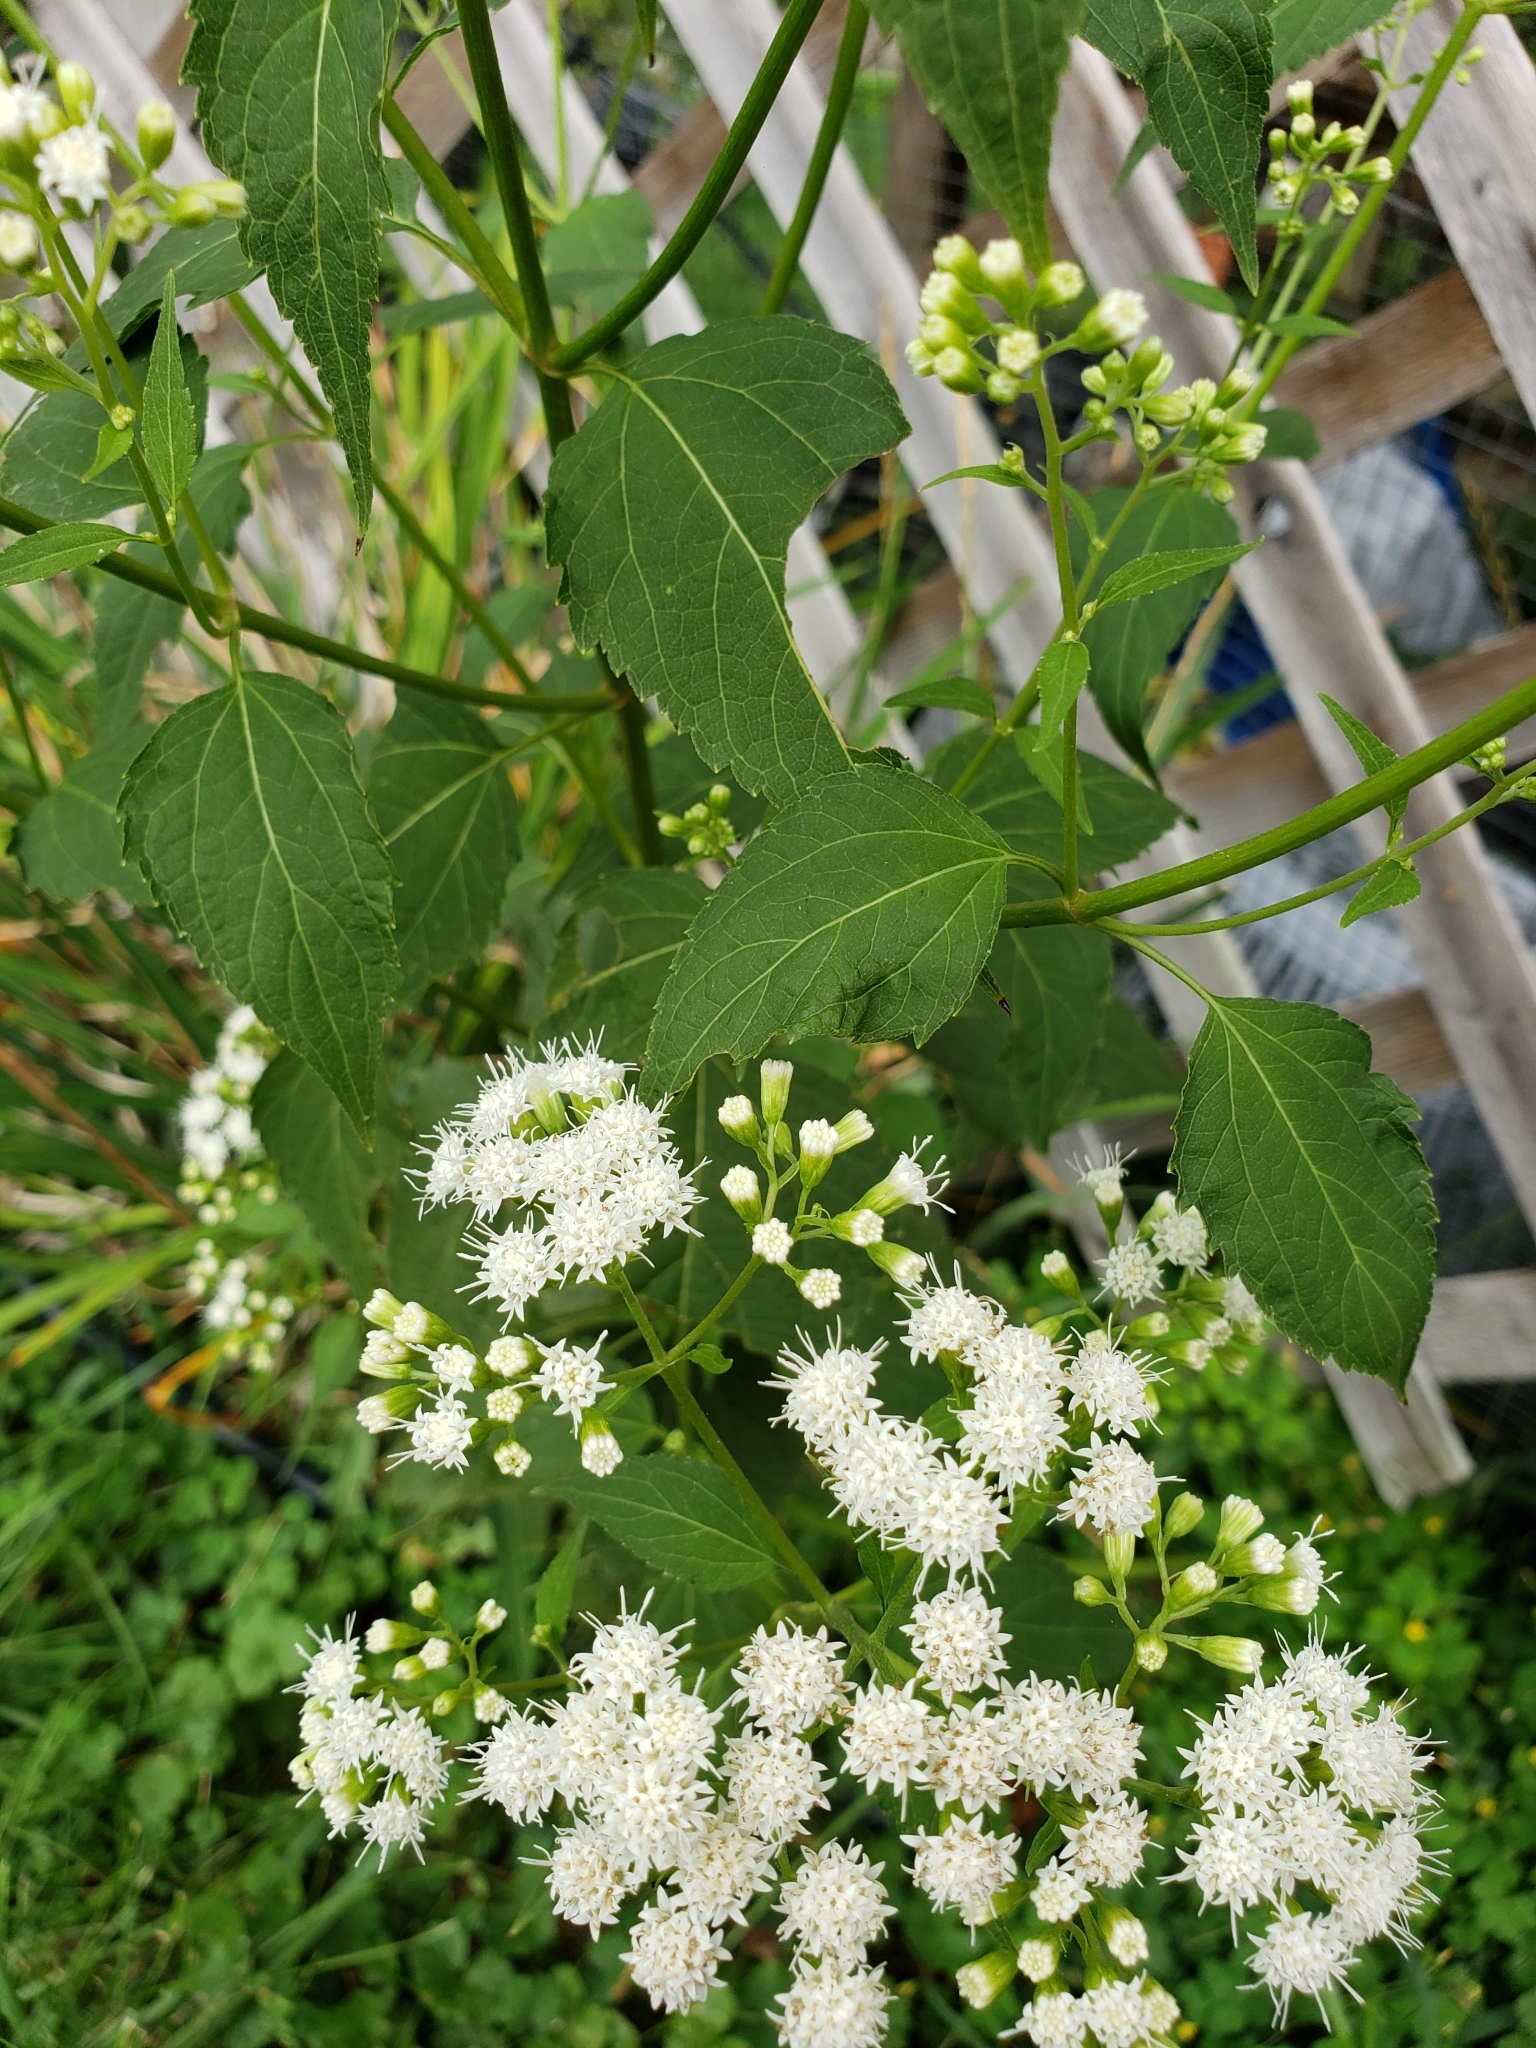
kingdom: Plantae
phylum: Tracheophyta
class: Magnoliopsida
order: Asterales
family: Asteraceae
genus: Ageratina
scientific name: Ageratina altissima
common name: White snakeroot
